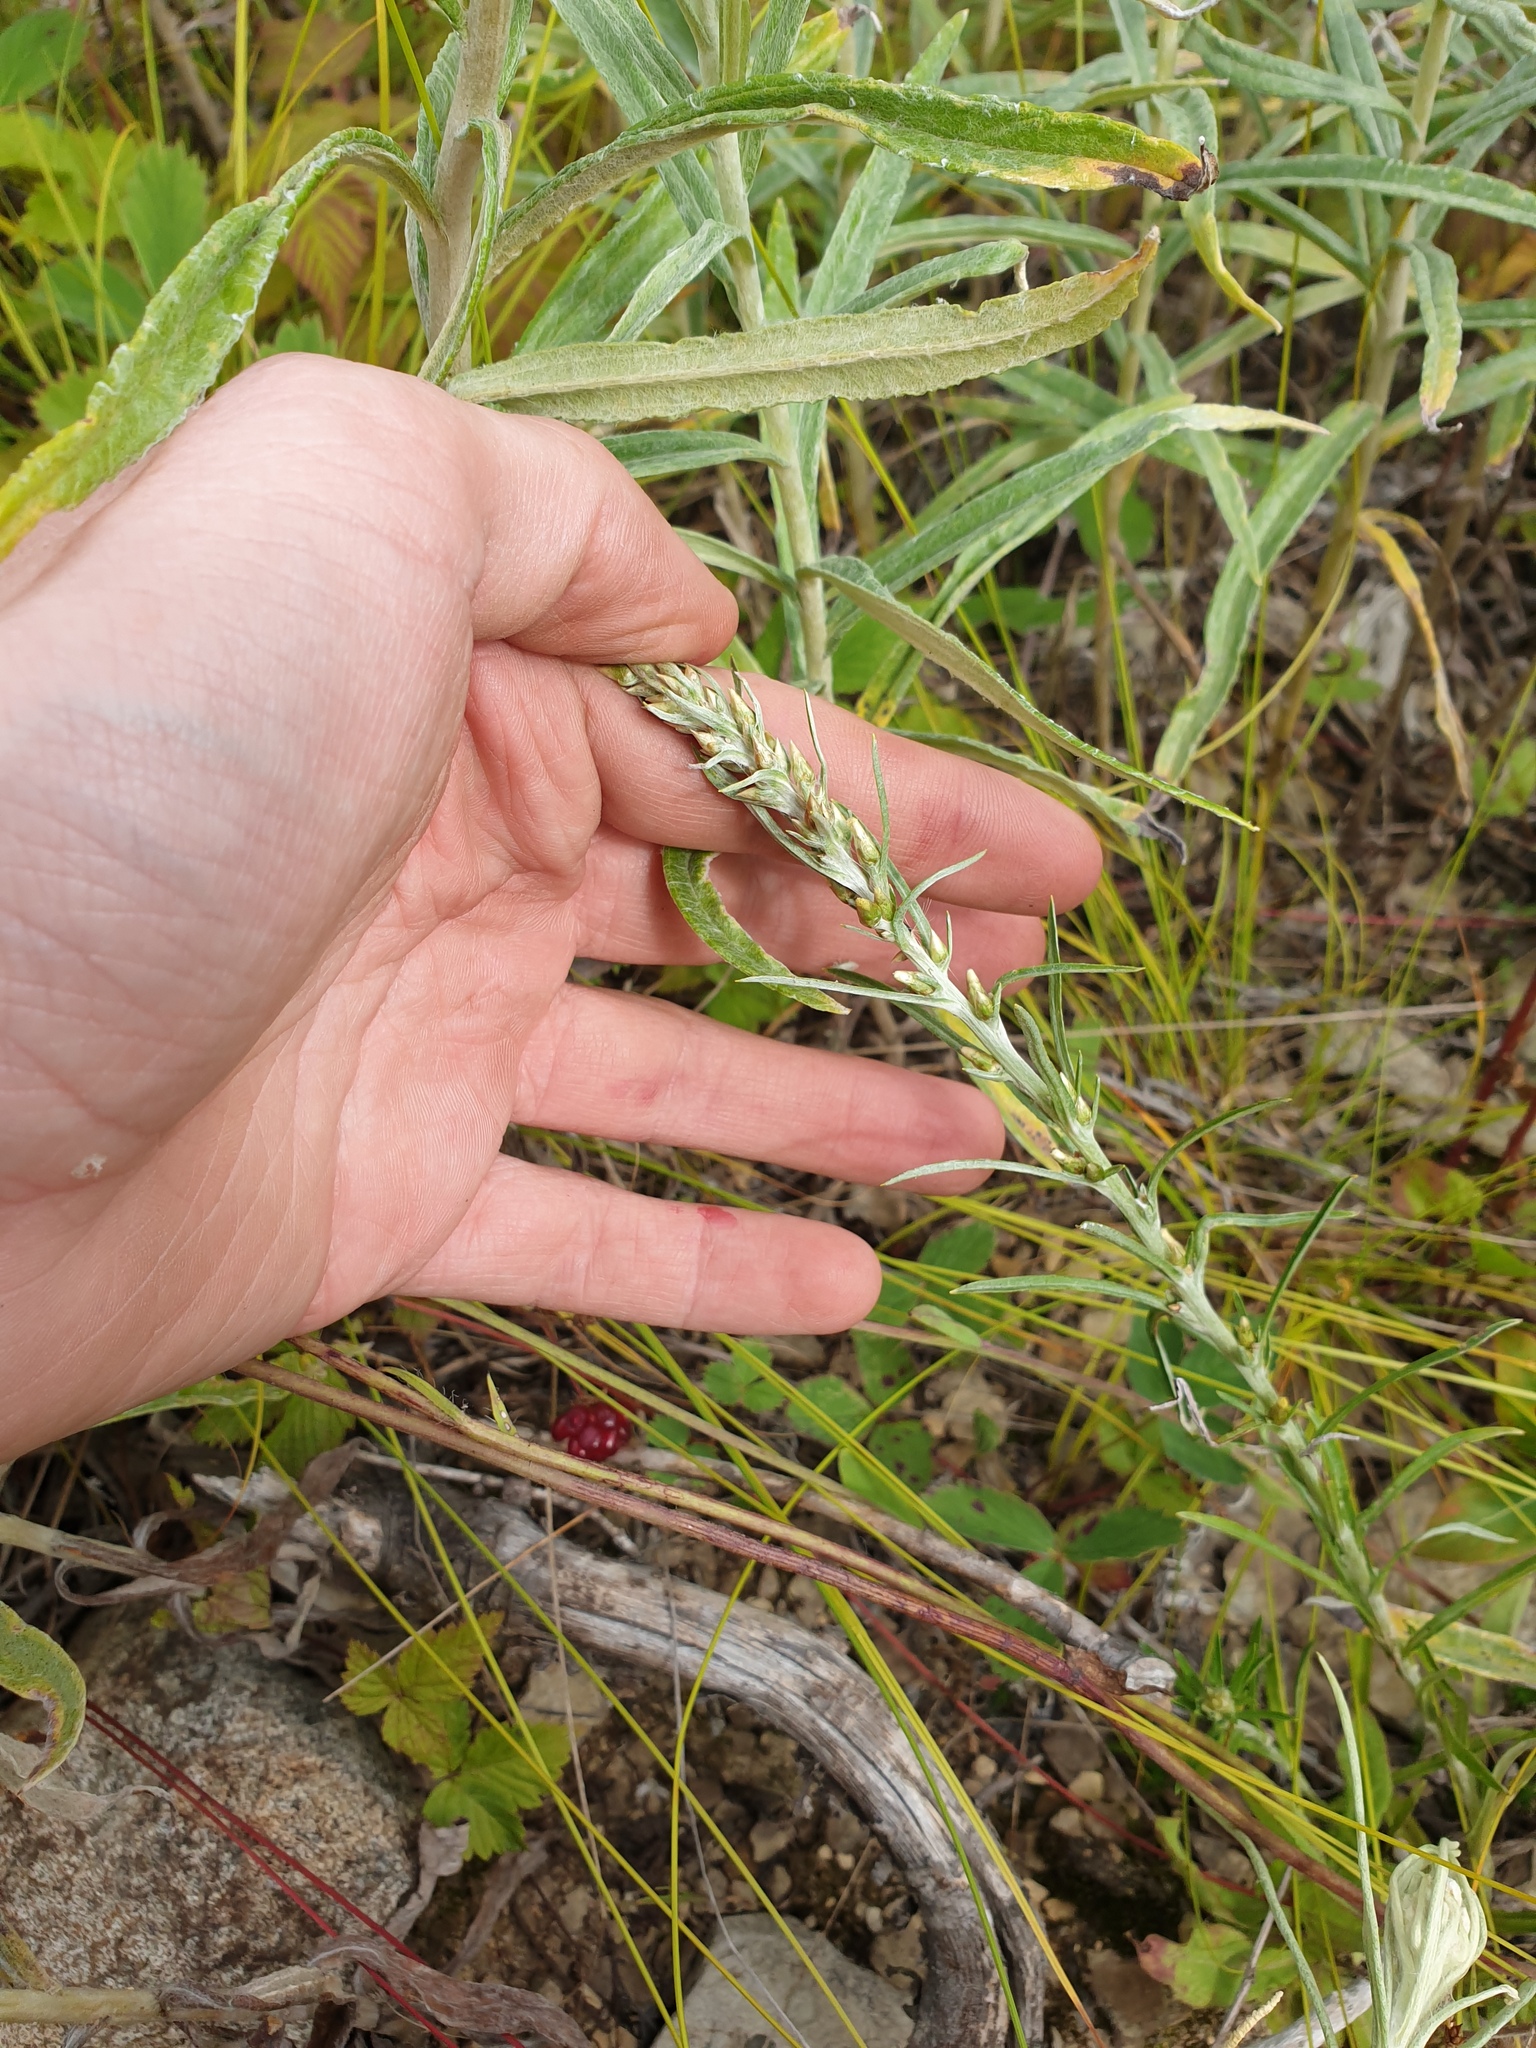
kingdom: Plantae
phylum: Tracheophyta
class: Magnoliopsida
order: Asterales
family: Asteraceae
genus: Omalotheca
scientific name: Omalotheca sylvatica
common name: Heath cudweed
